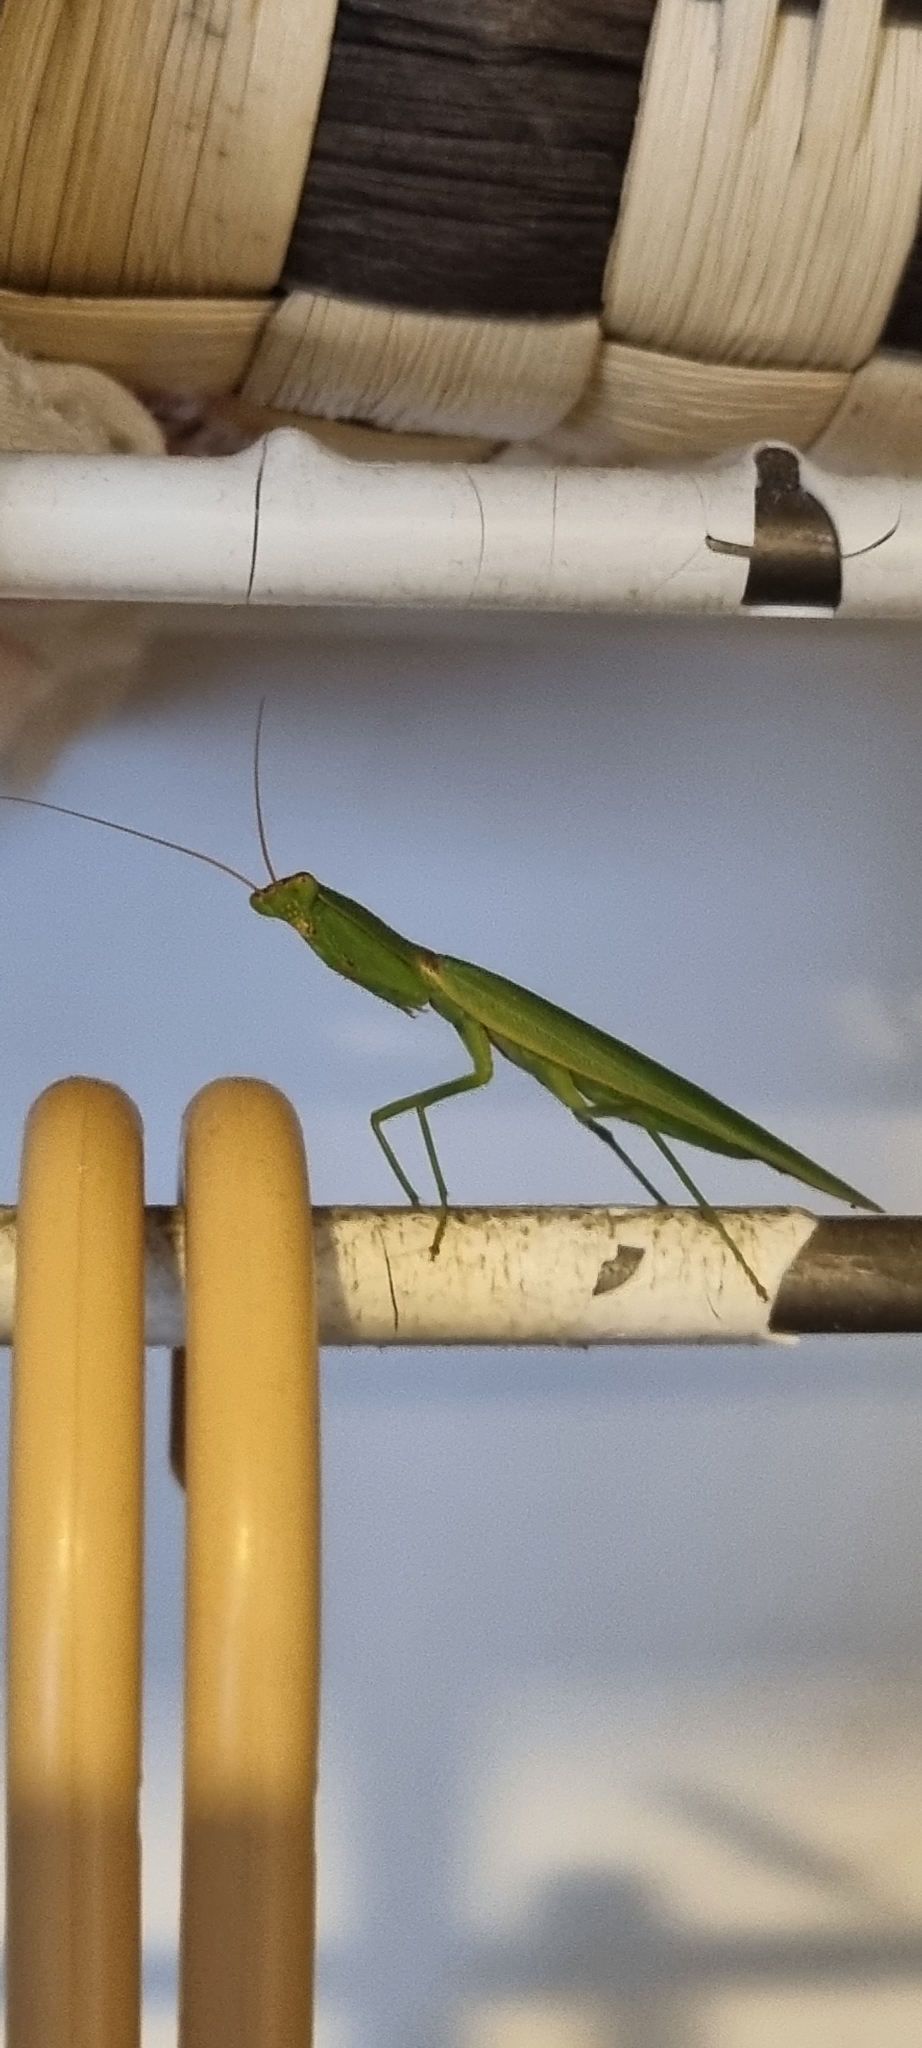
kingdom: Animalia
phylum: Arthropoda
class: Insecta
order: Mantodea
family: Mantidae
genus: Orthodera
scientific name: Orthodera novaezealandiae
